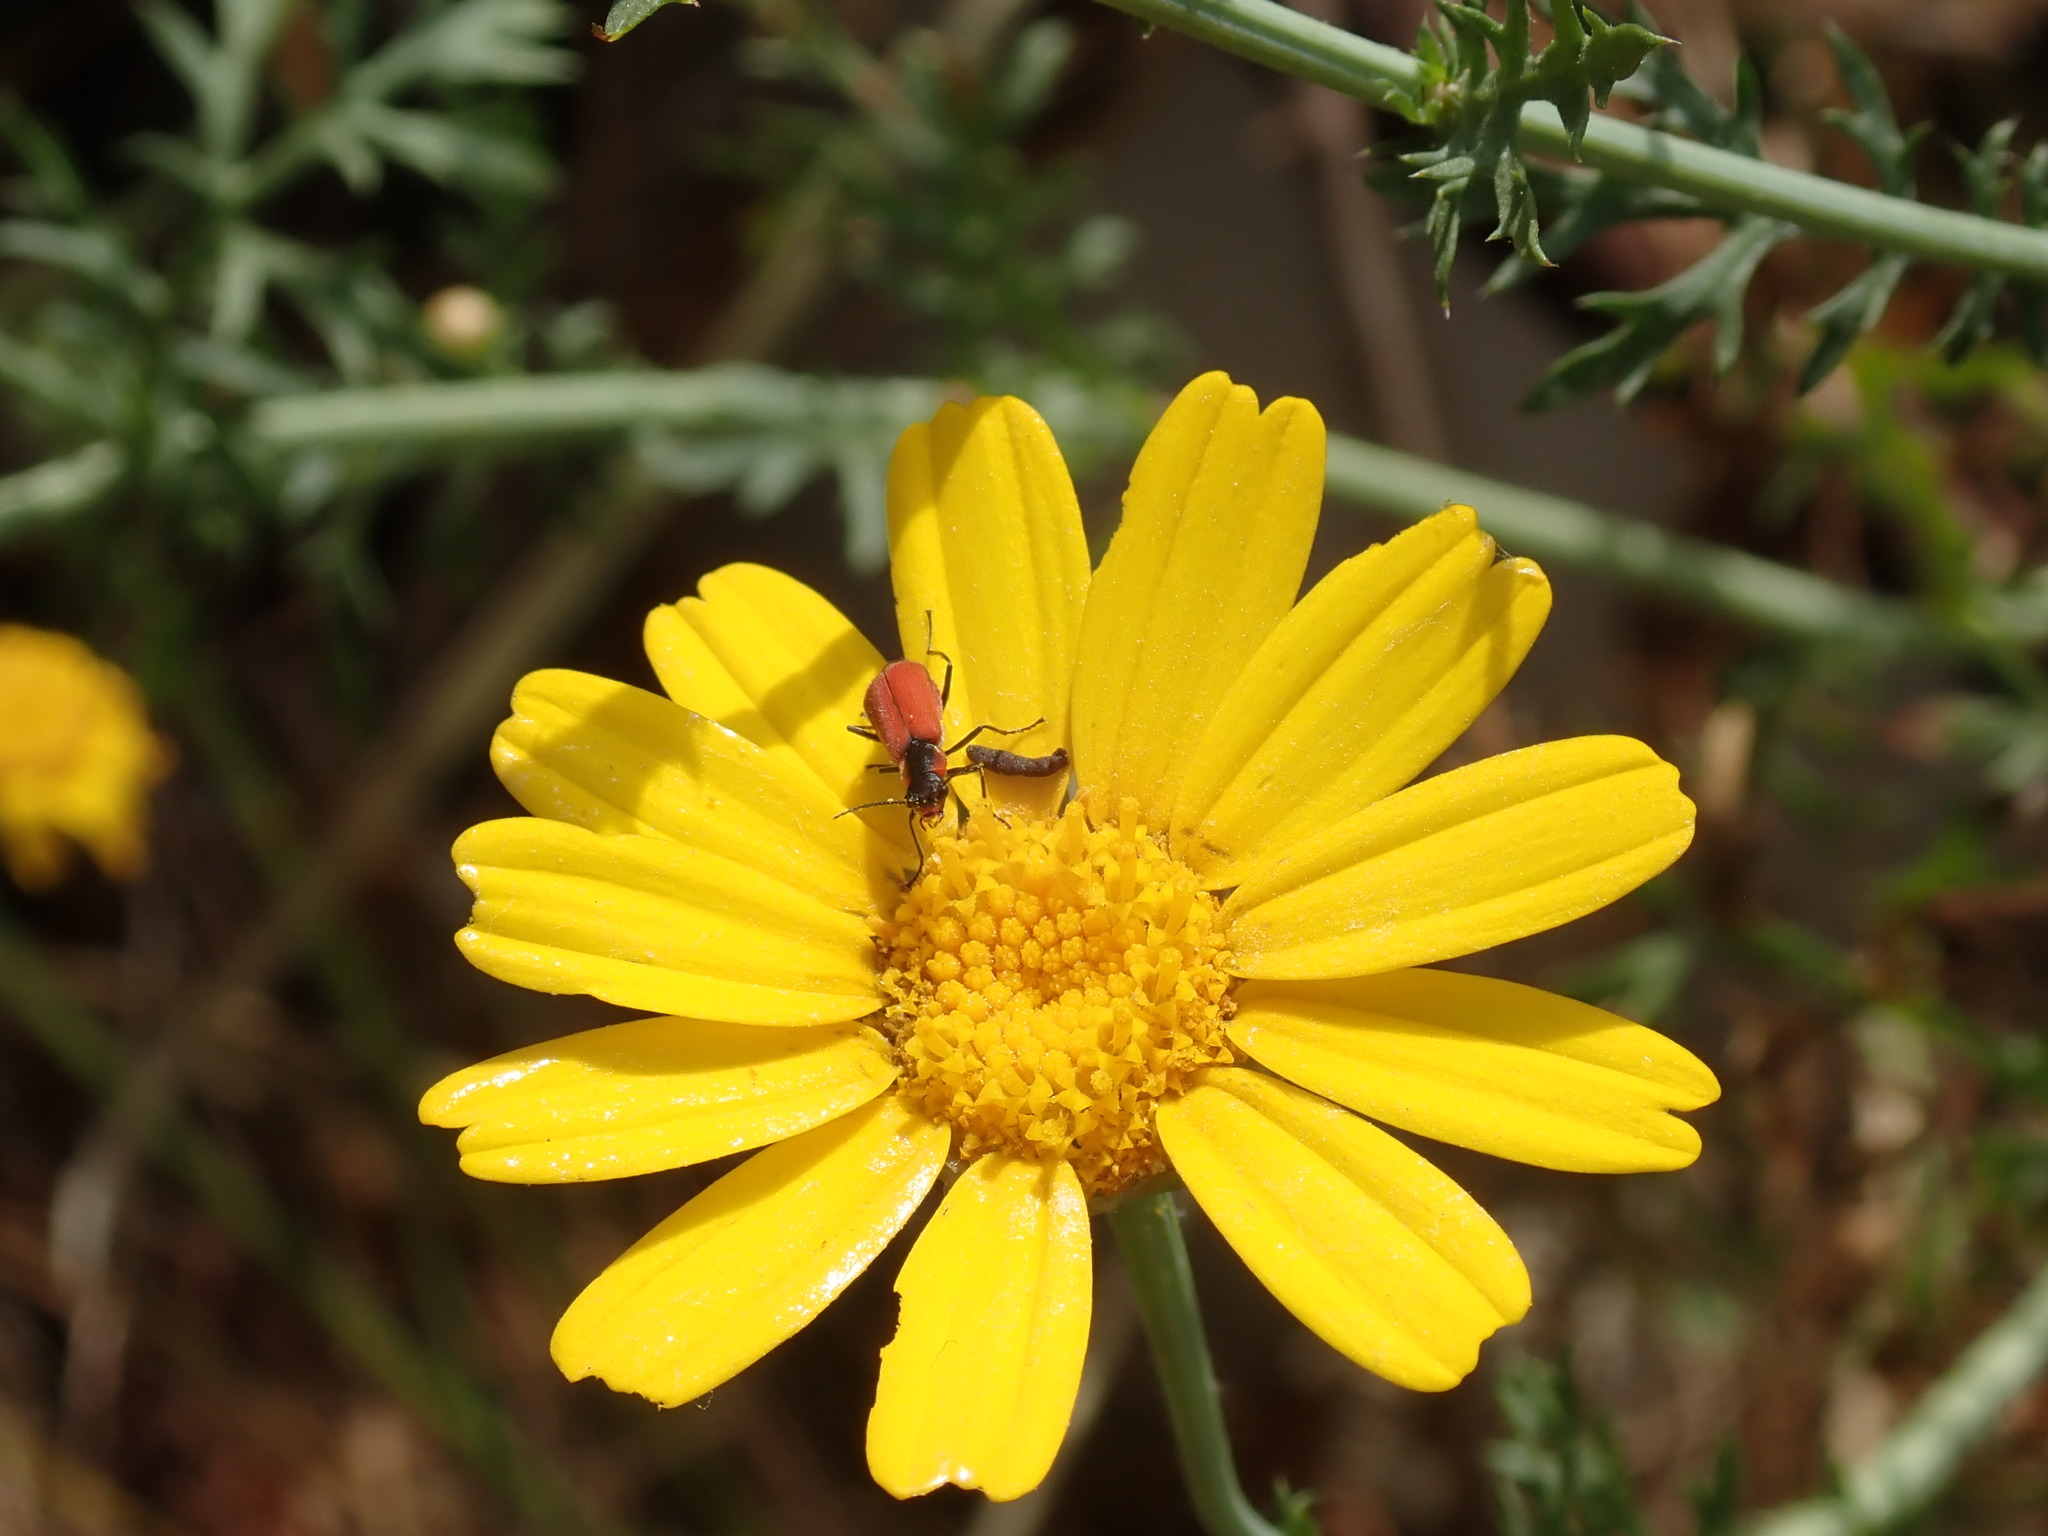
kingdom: Animalia
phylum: Arthropoda
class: Insecta
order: Coleoptera
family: Melyridae
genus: Malachius
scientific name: Malachius coccineus
